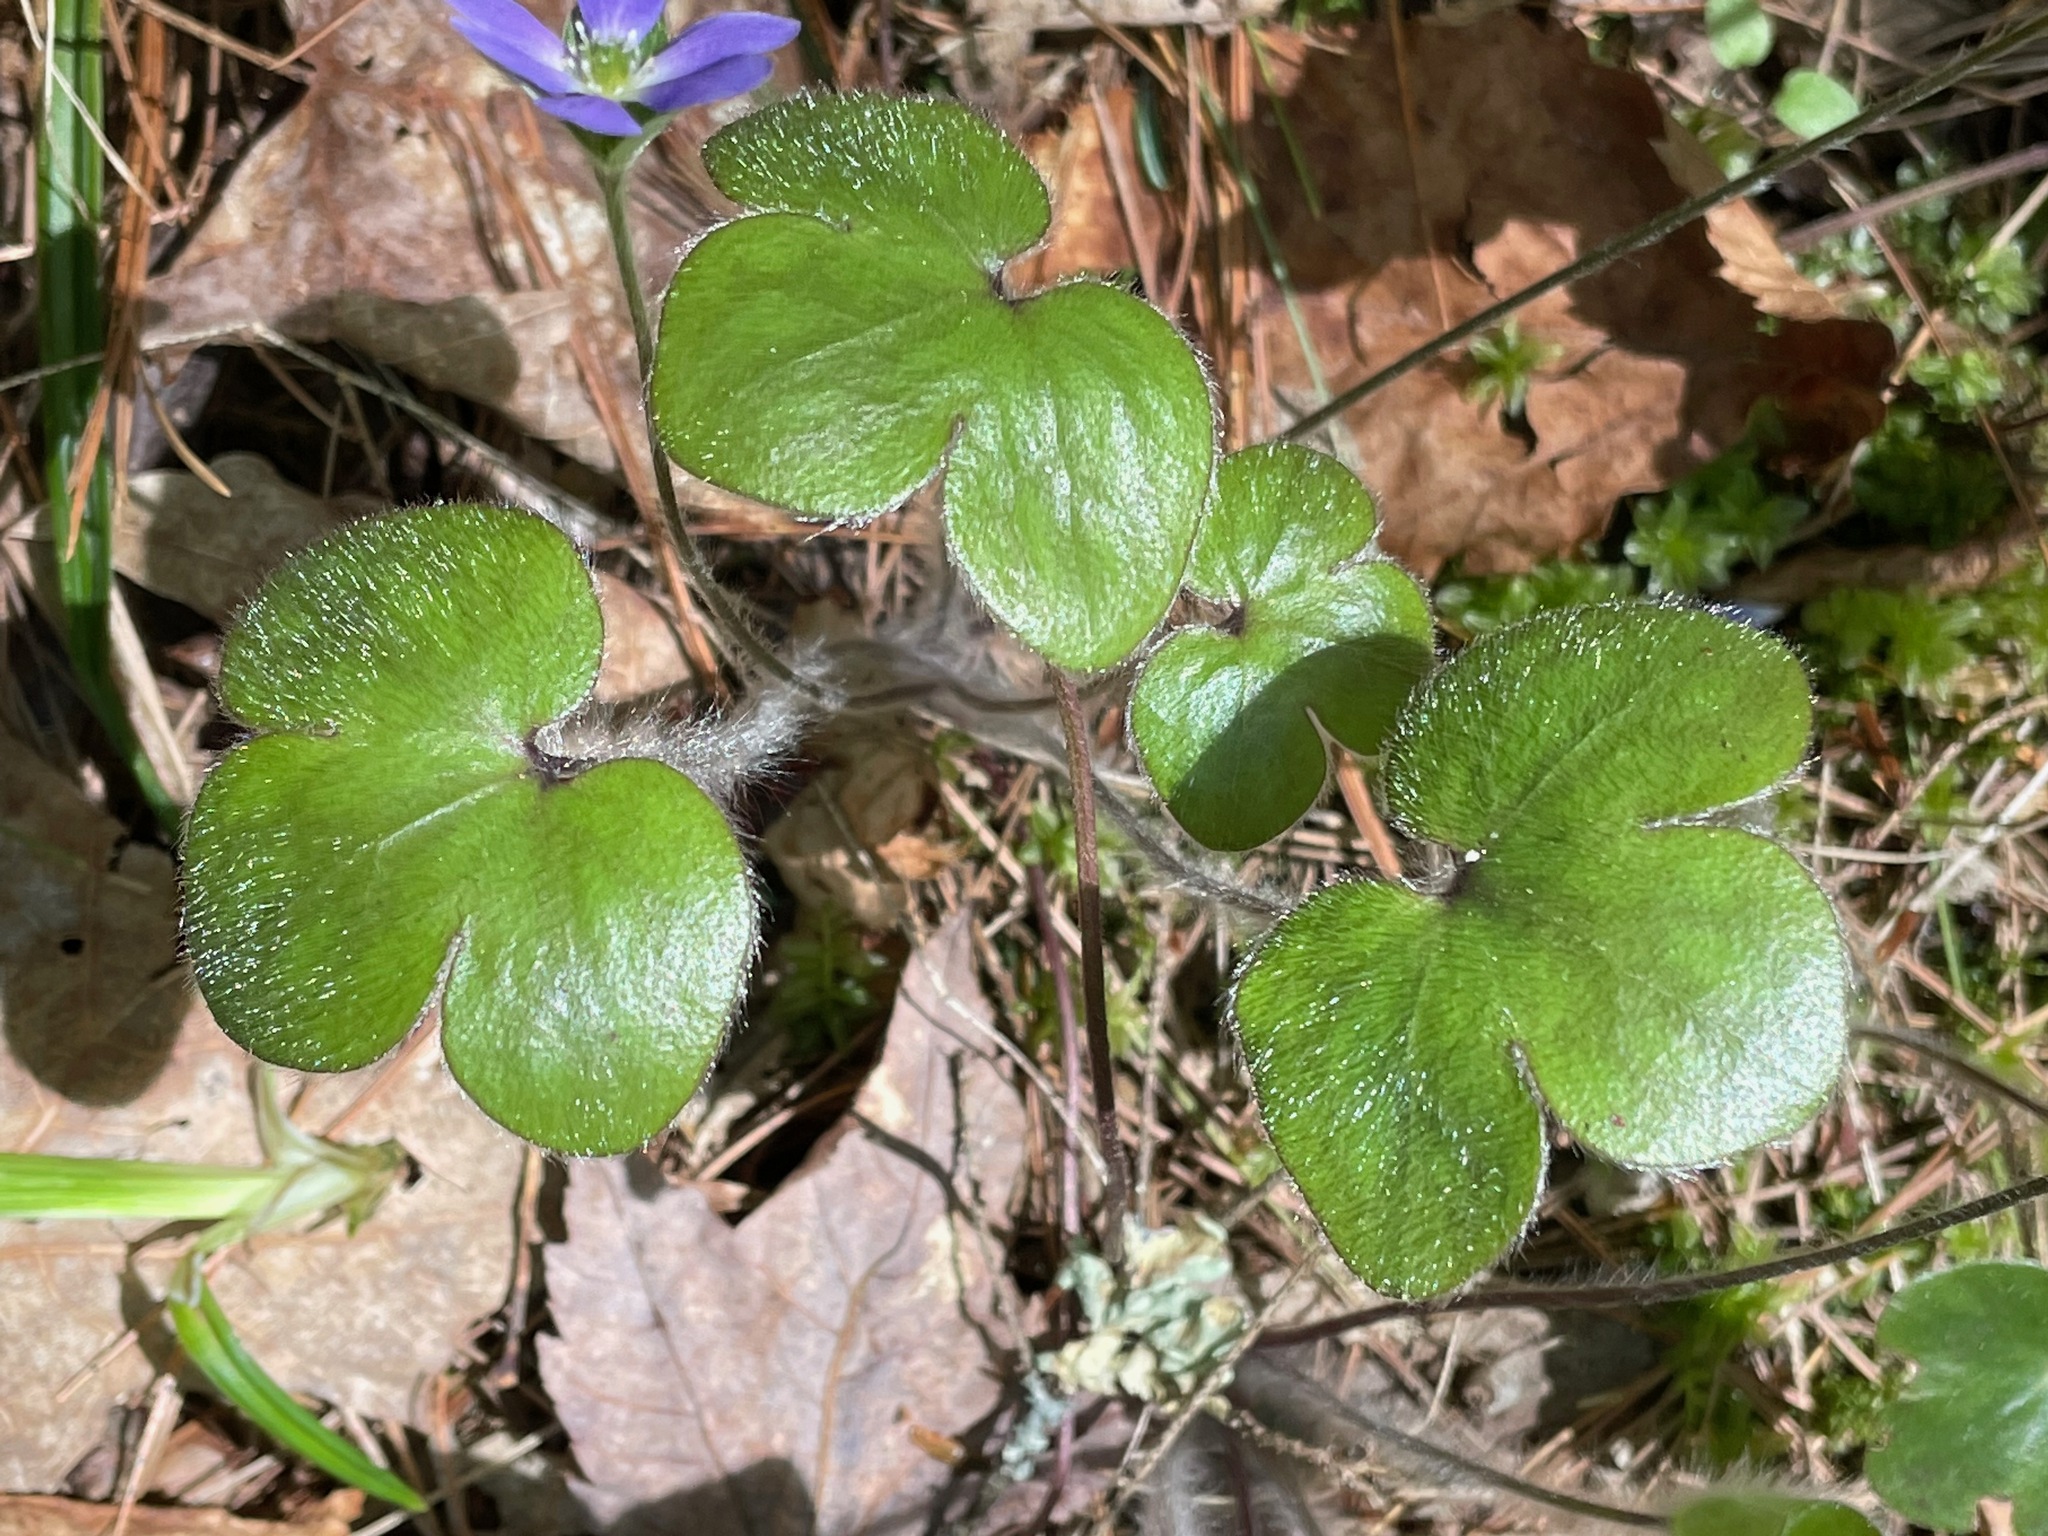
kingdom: Plantae
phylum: Tracheophyta
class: Magnoliopsida
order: Ranunculales
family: Ranunculaceae
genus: Hepatica
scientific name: Hepatica americana
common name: American hepatica
